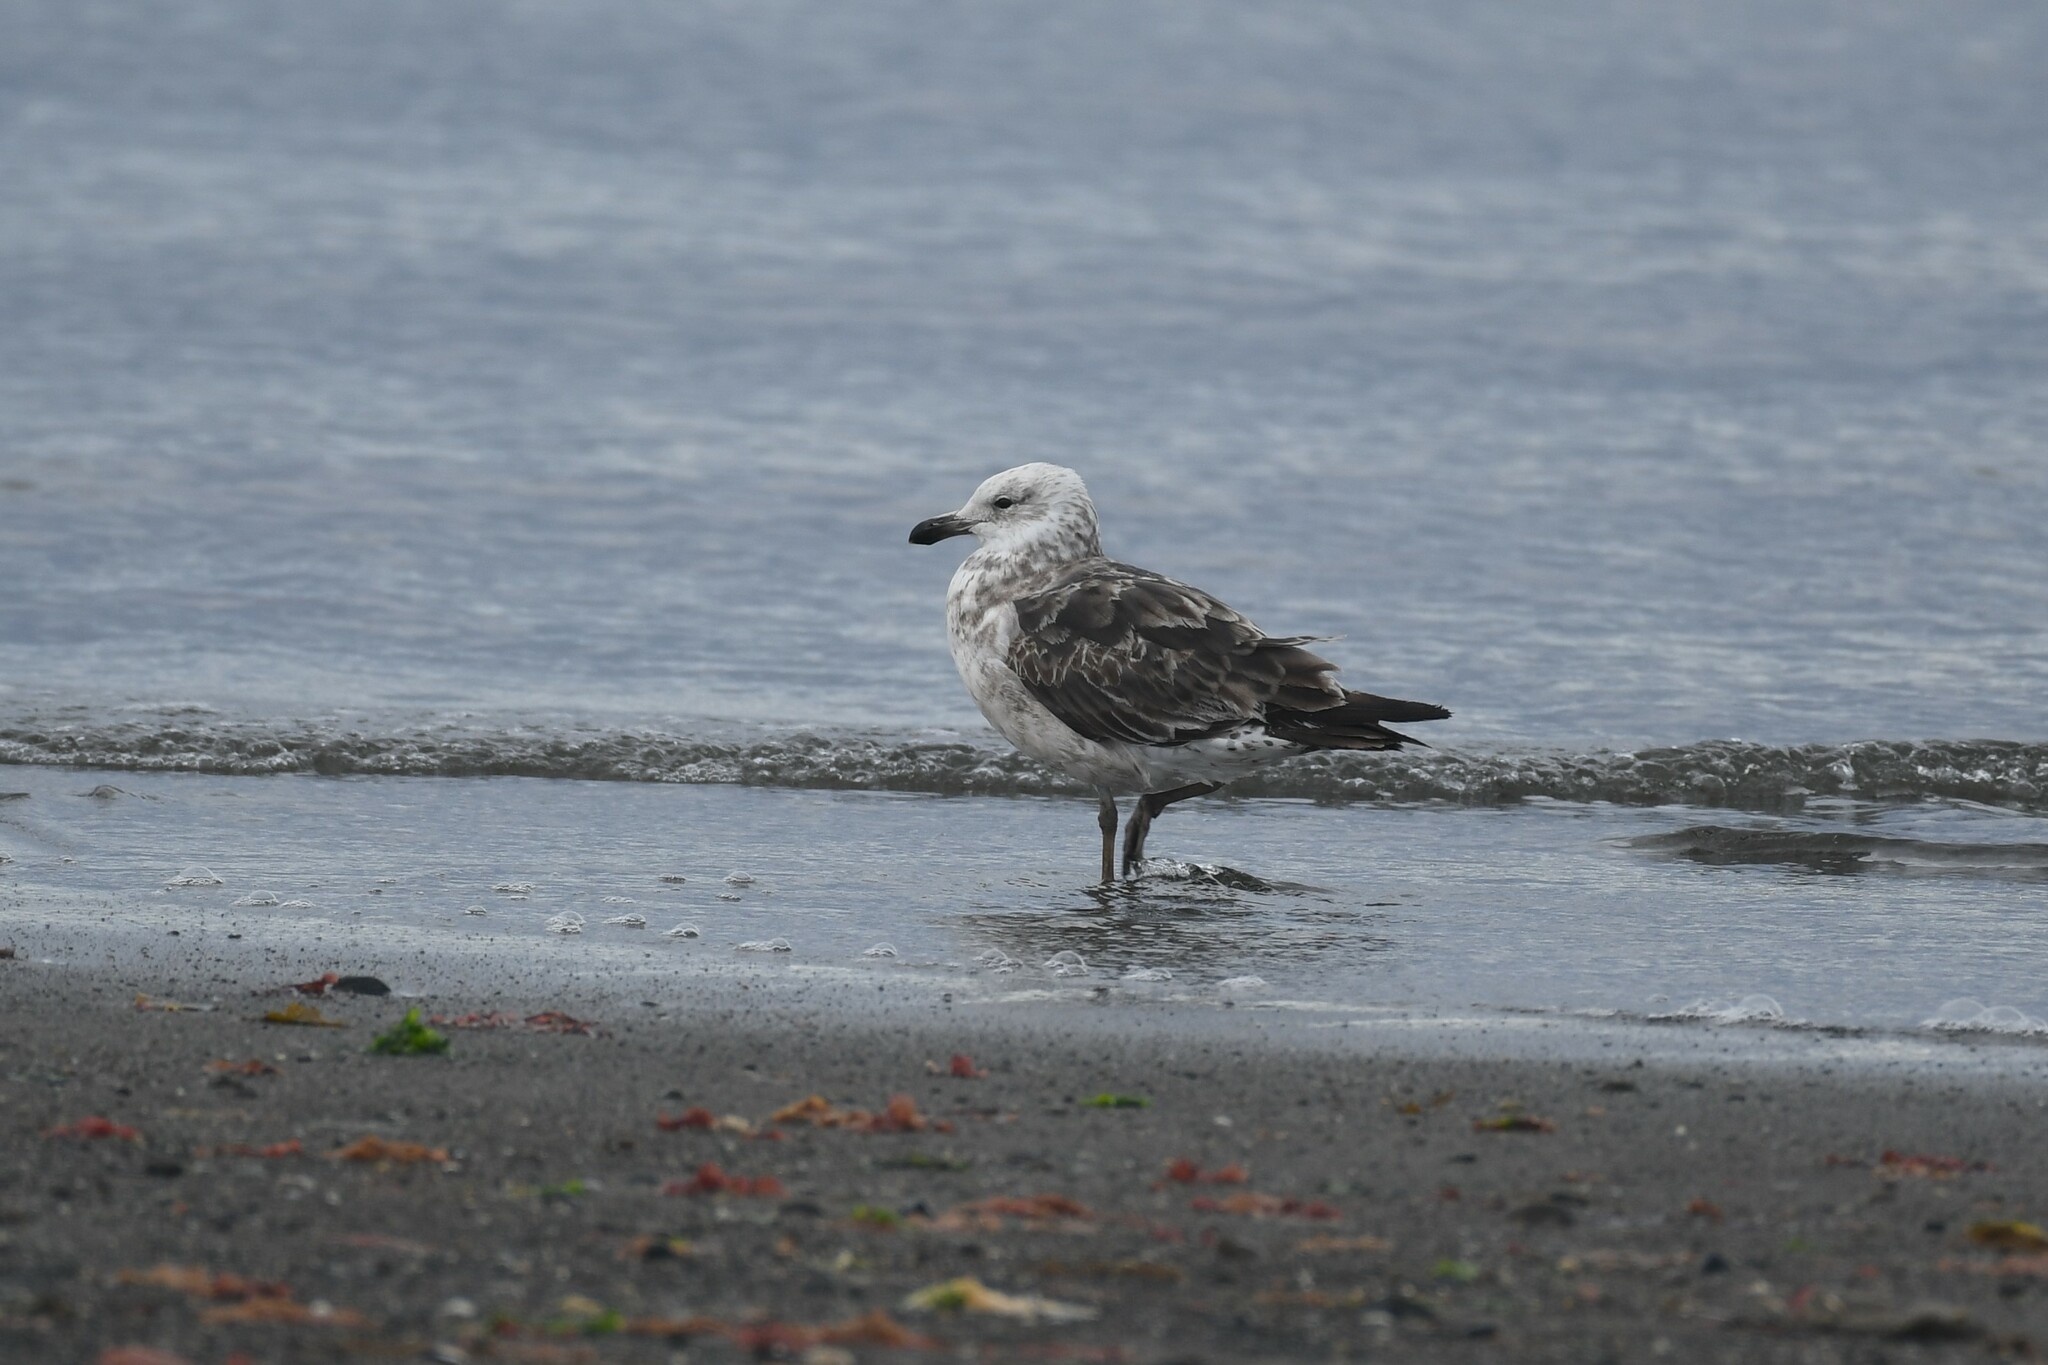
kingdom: Animalia
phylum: Chordata
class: Aves
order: Charadriiformes
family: Laridae
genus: Larus
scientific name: Larus dominicanus
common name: Kelp gull
